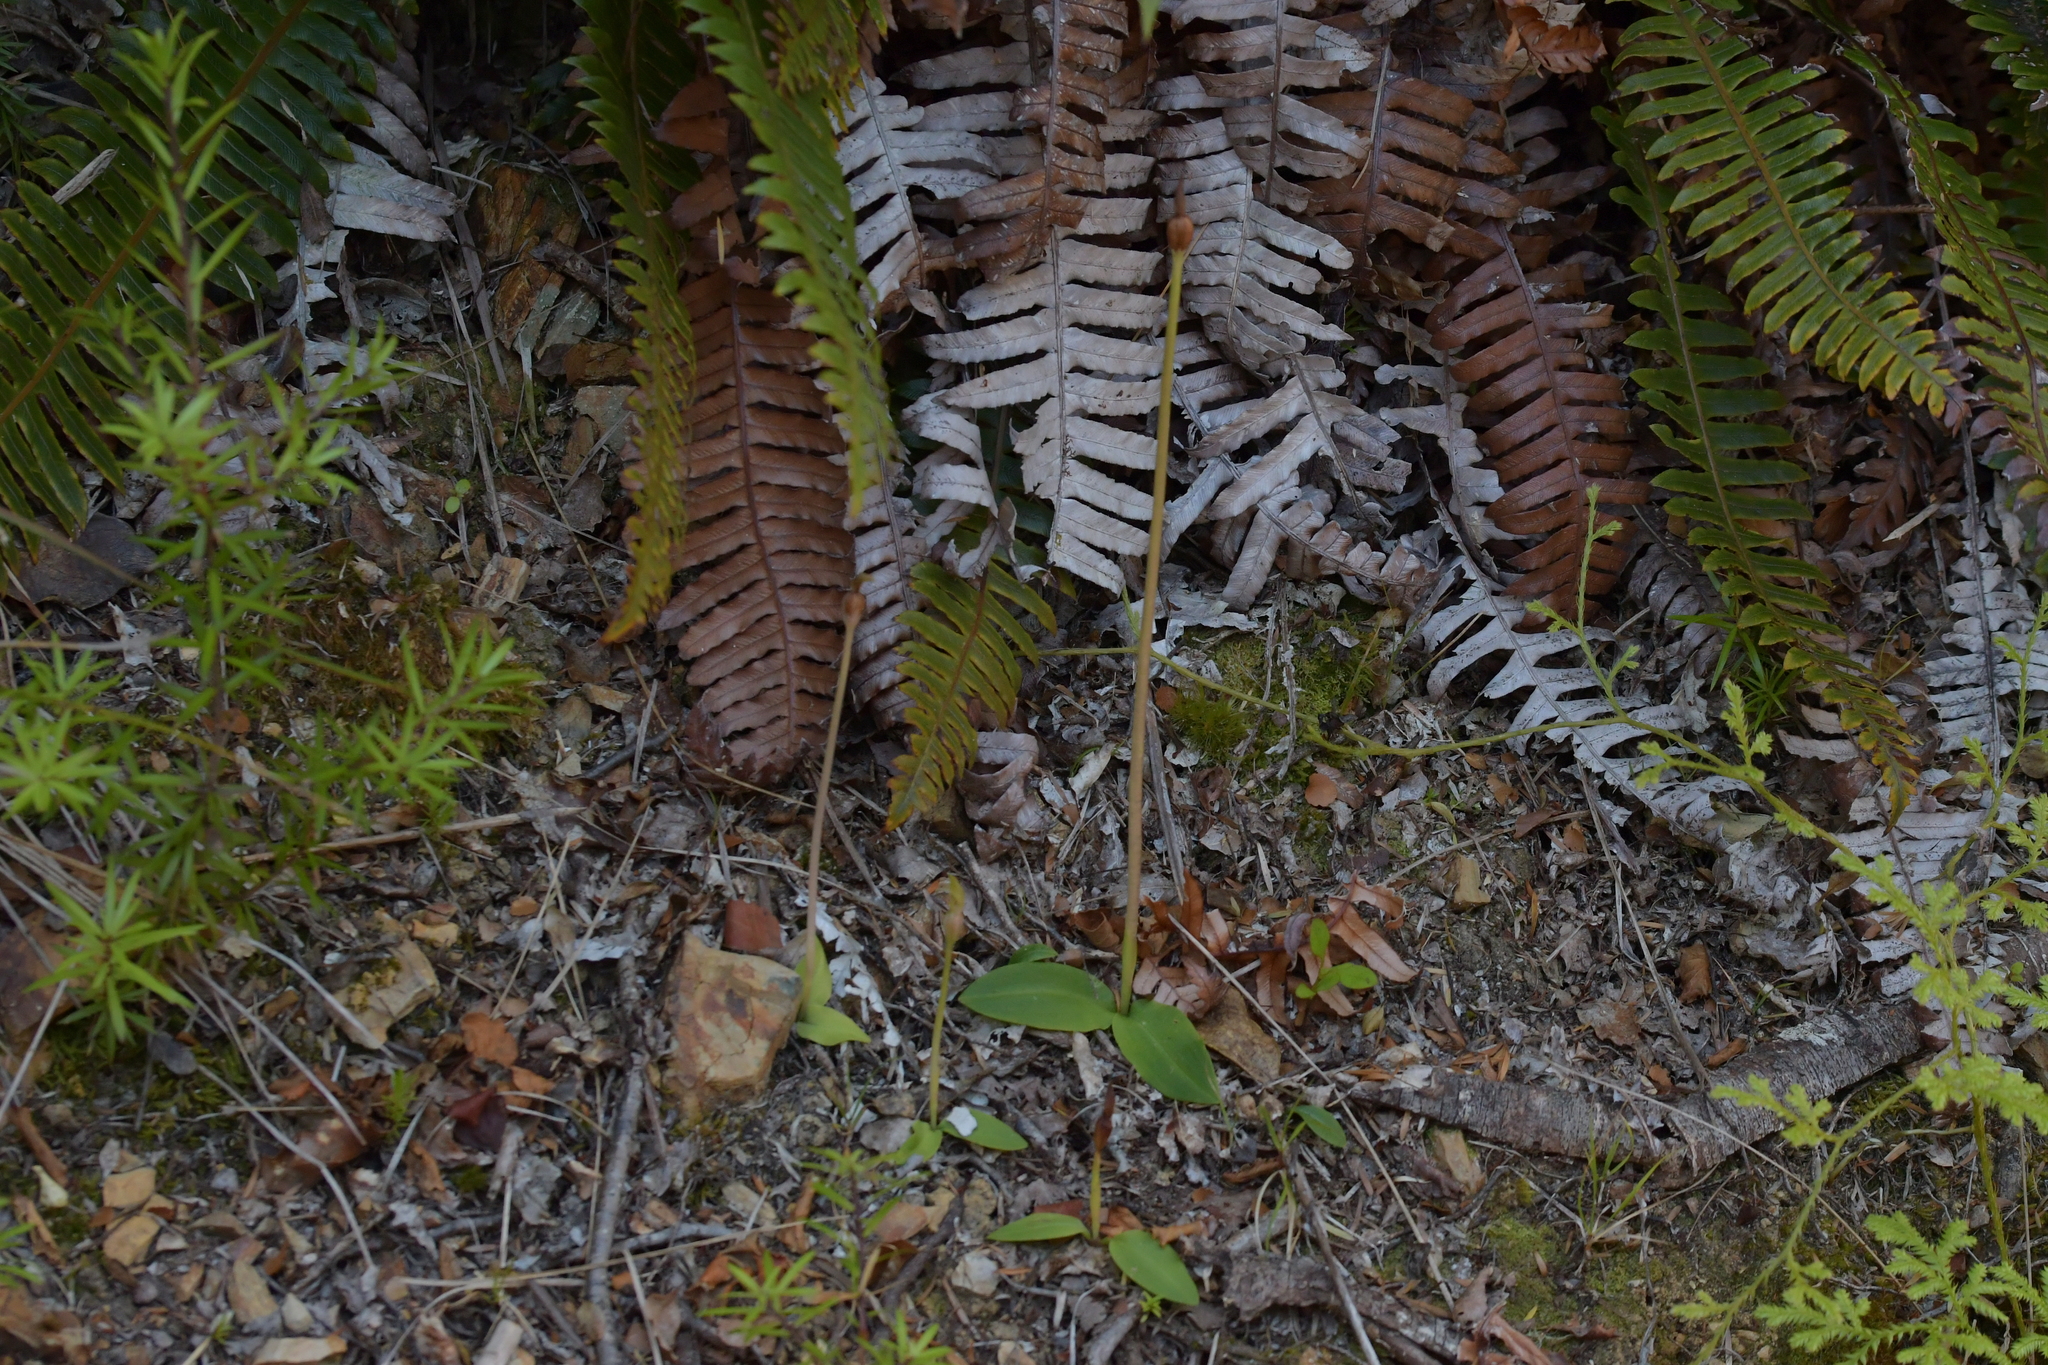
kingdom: Plantae
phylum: Tracheophyta
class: Liliopsida
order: Asparagales
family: Orchidaceae
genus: Chiloglottis
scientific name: Chiloglottis cornuta
